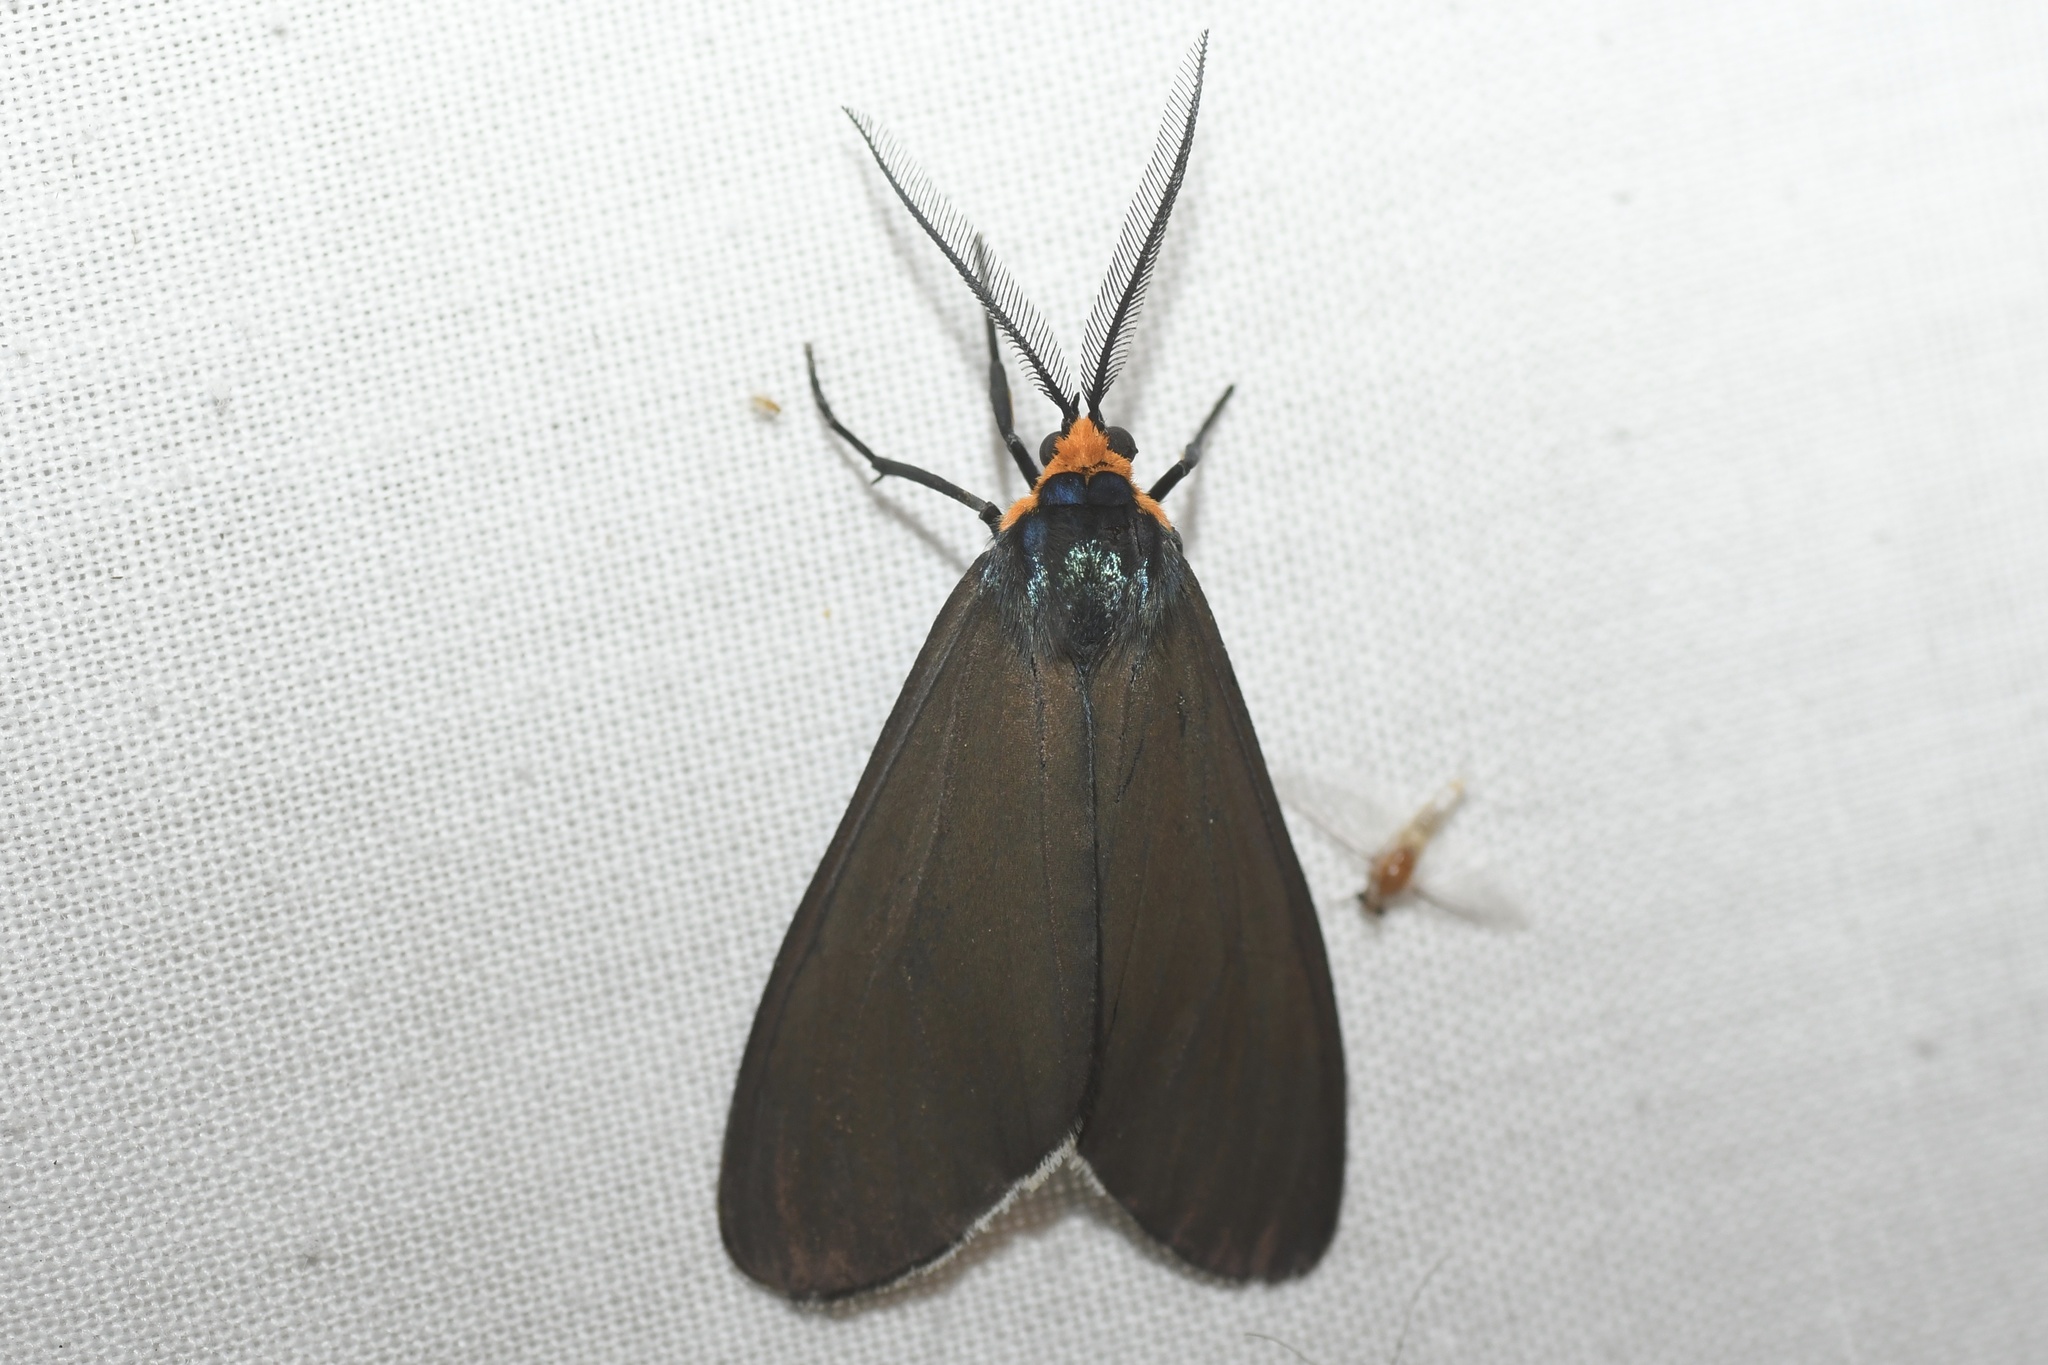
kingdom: Animalia
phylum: Arthropoda
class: Insecta
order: Lepidoptera
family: Erebidae
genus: Ctenucha
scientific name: Ctenucha virginica
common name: Virginia ctenucha moth
